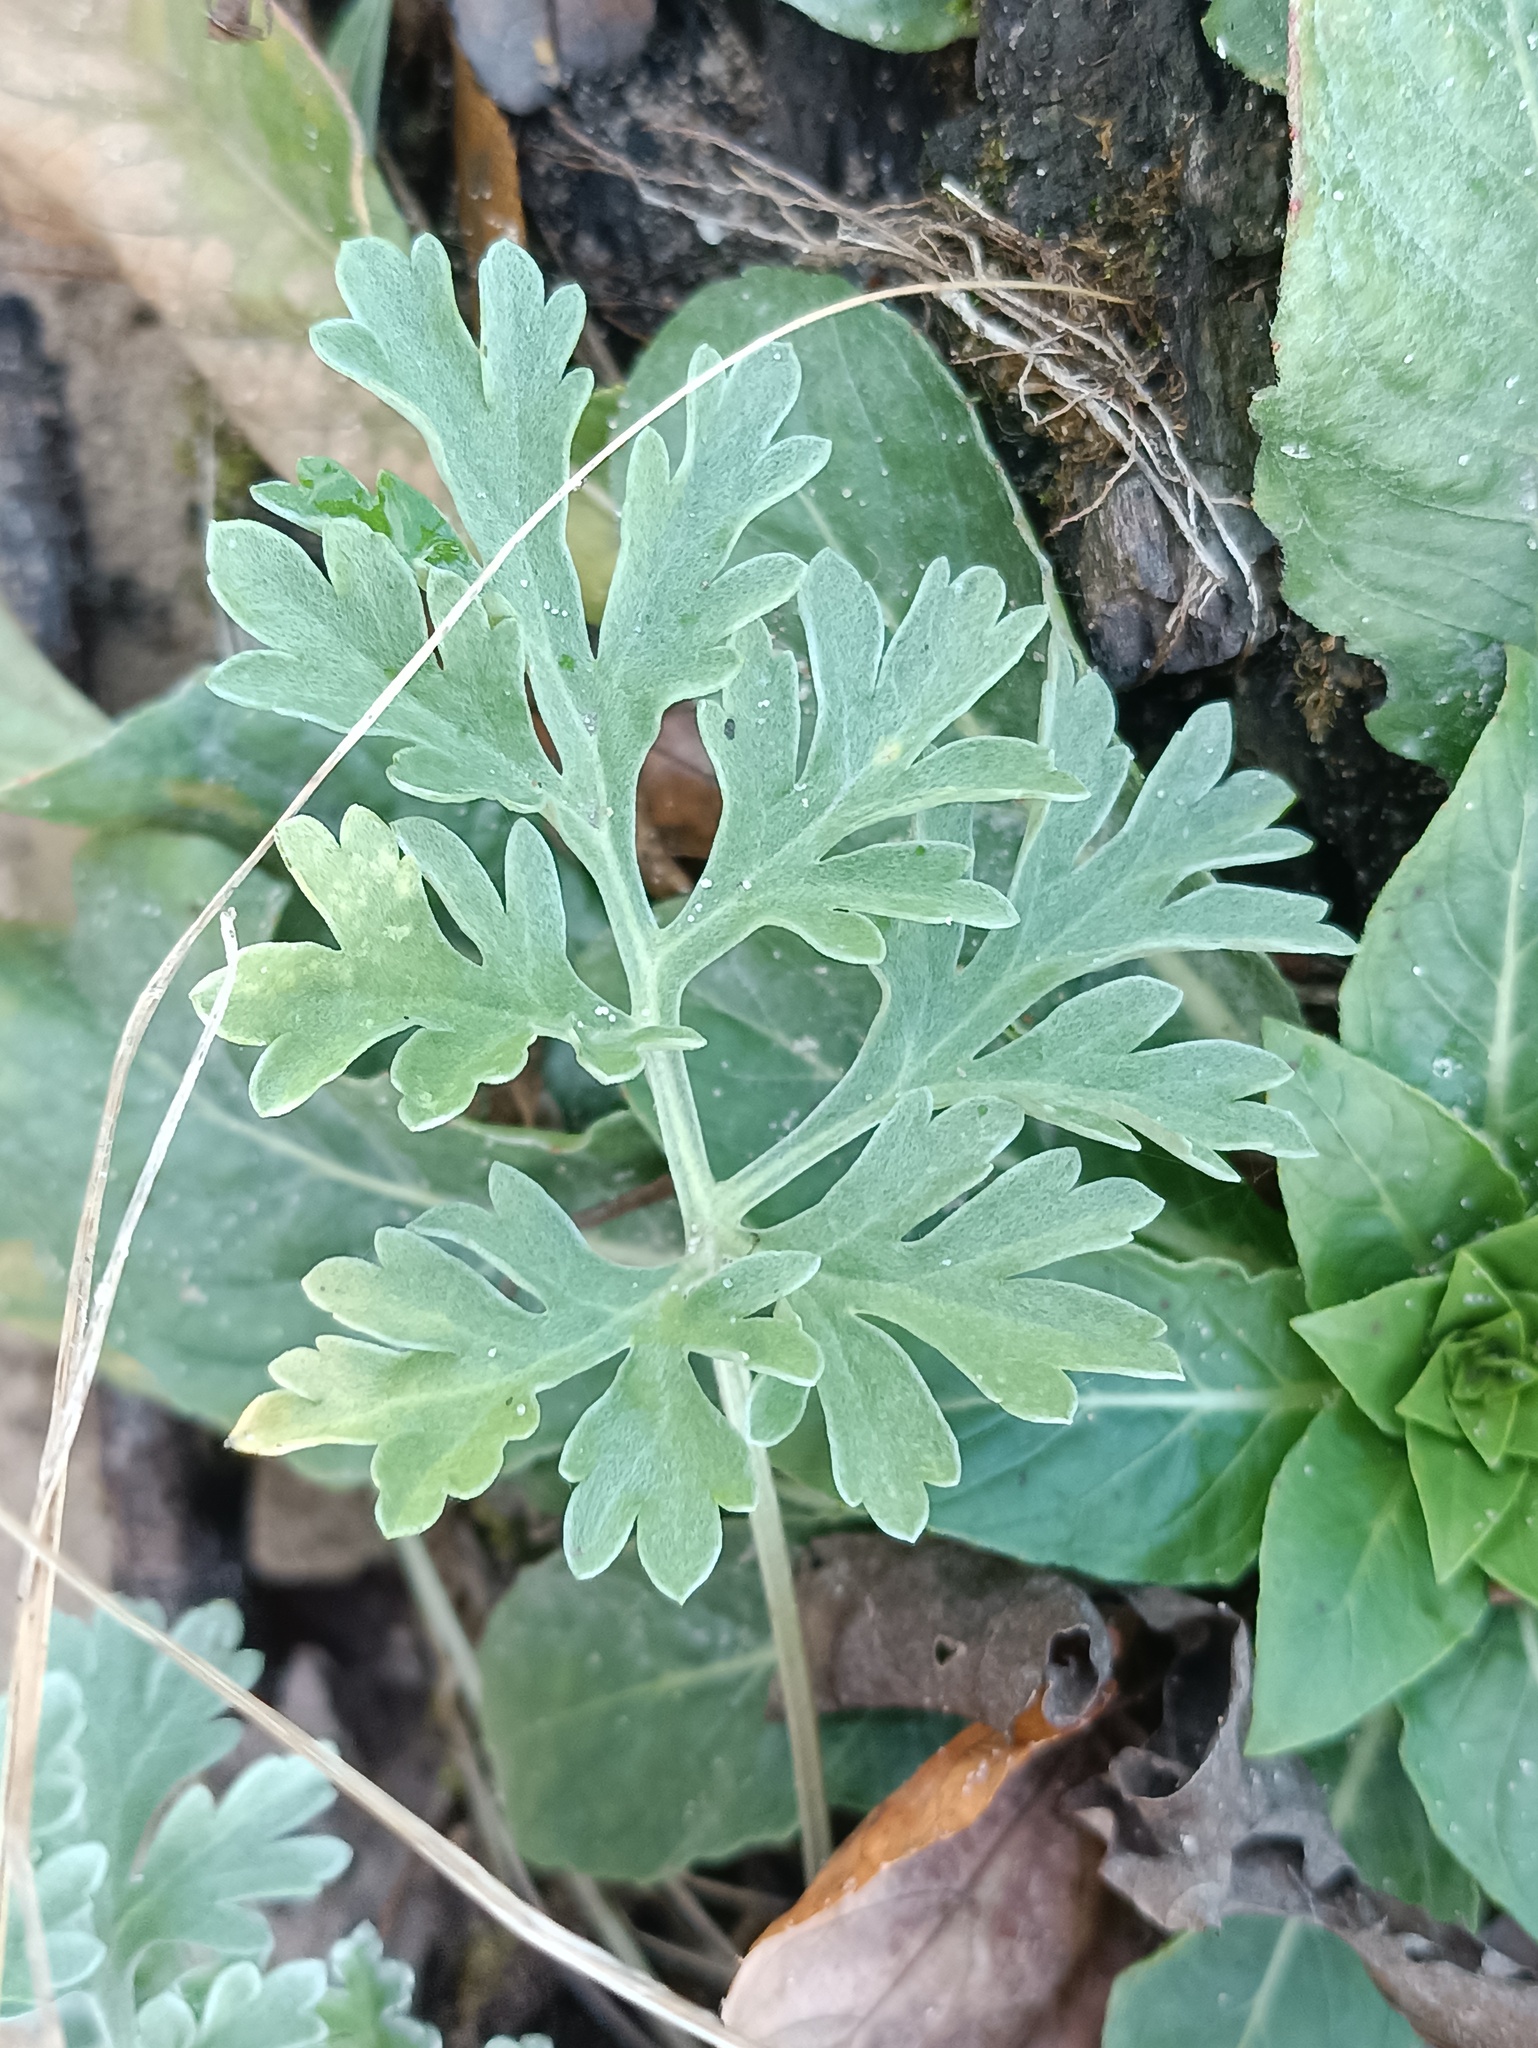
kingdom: Plantae
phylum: Tracheophyta
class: Magnoliopsida
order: Asterales
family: Asteraceae
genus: Artemisia
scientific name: Artemisia absinthium
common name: Wormwood
